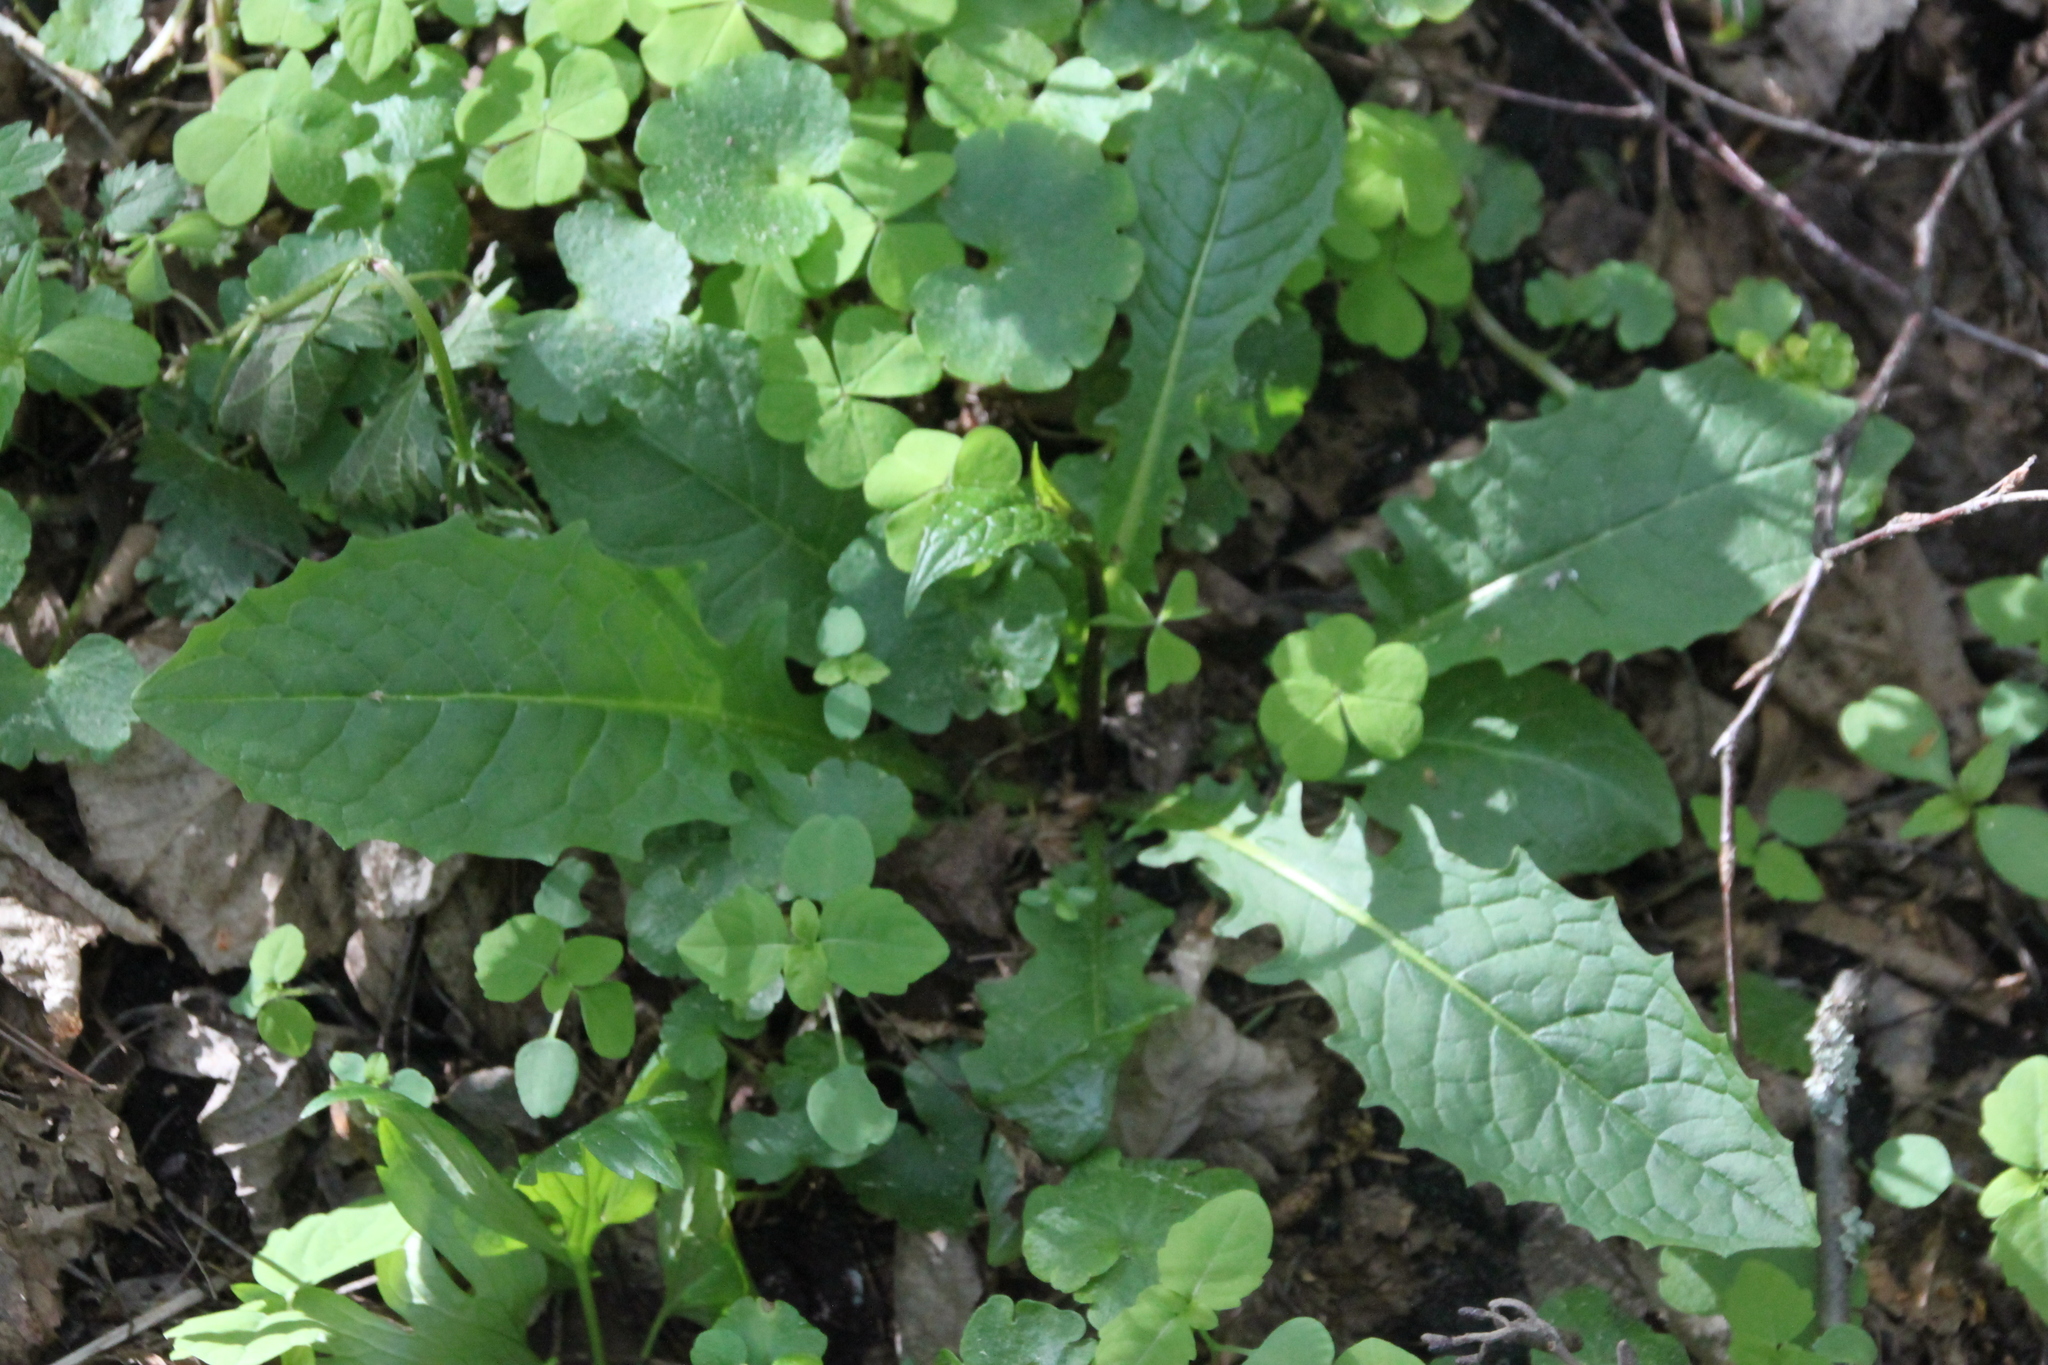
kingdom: Plantae
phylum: Tracheophyta
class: Magnoliopsida
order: Asterales
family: Asteraceae
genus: Crepis
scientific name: Crepis paludosa
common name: Marsh hawk's-beard
